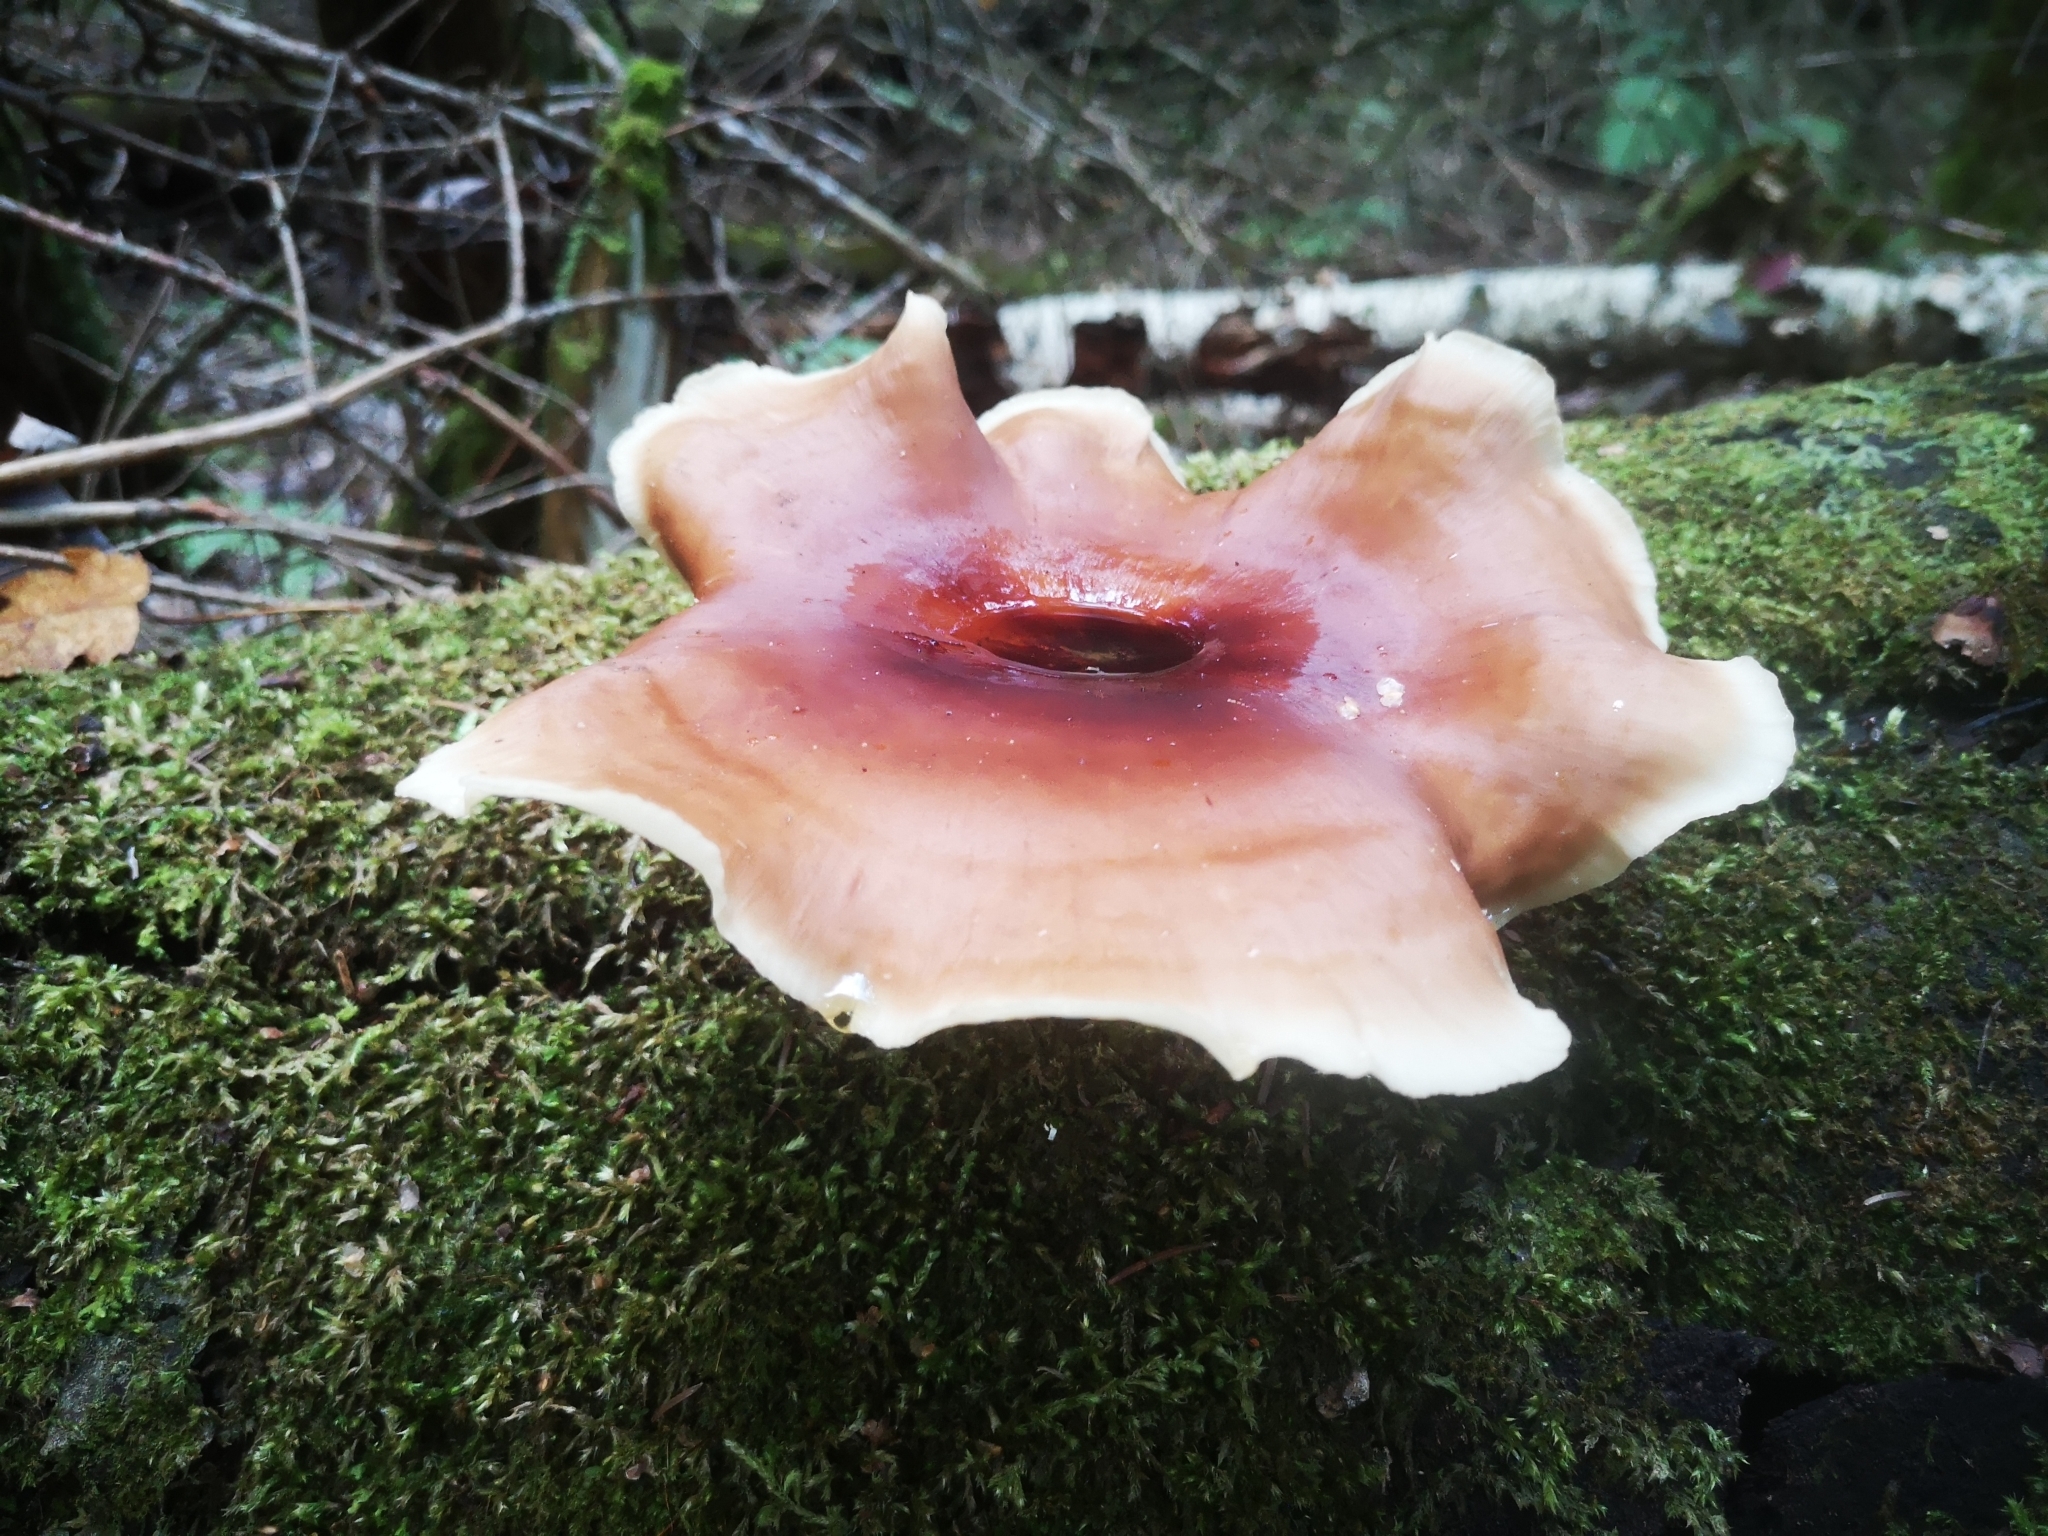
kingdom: Fungi
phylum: Basidiomycota
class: Agaricomycetes
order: Polyporales
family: Polyporaceae
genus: Picipes
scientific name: Picipes badius
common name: Bay polypore
